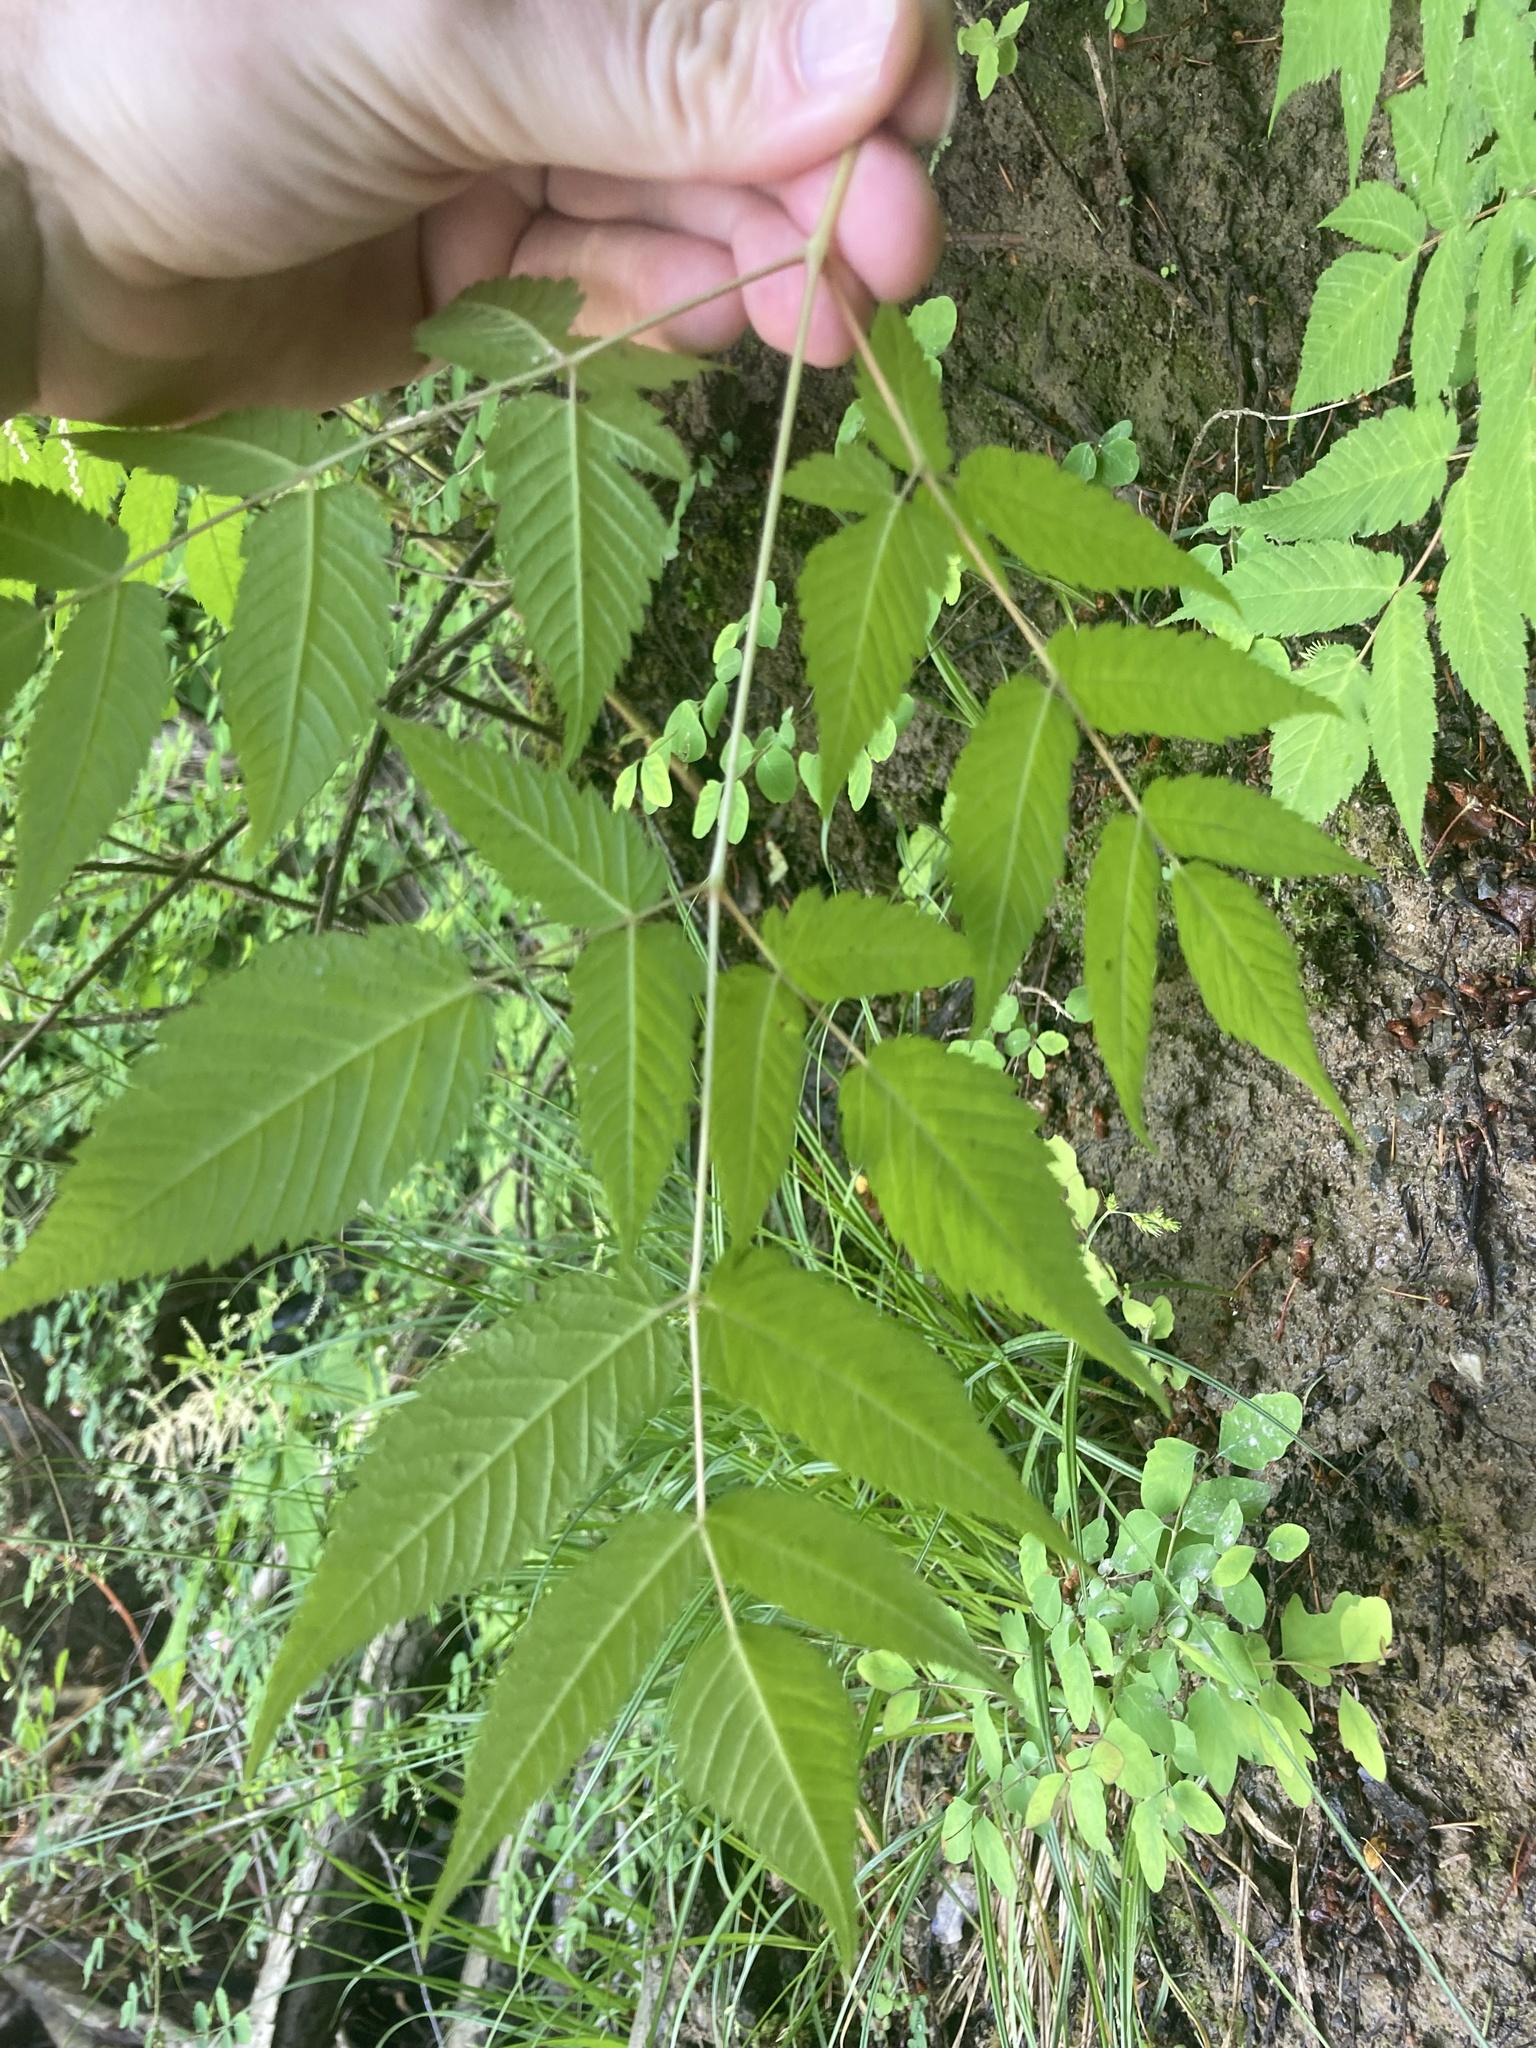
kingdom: Plantae
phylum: Tracheophyta
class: Magnoliopsida
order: Rosales
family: Rosaceae
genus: Aruncus
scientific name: Aruncus dioicus
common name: Buck's-beard
